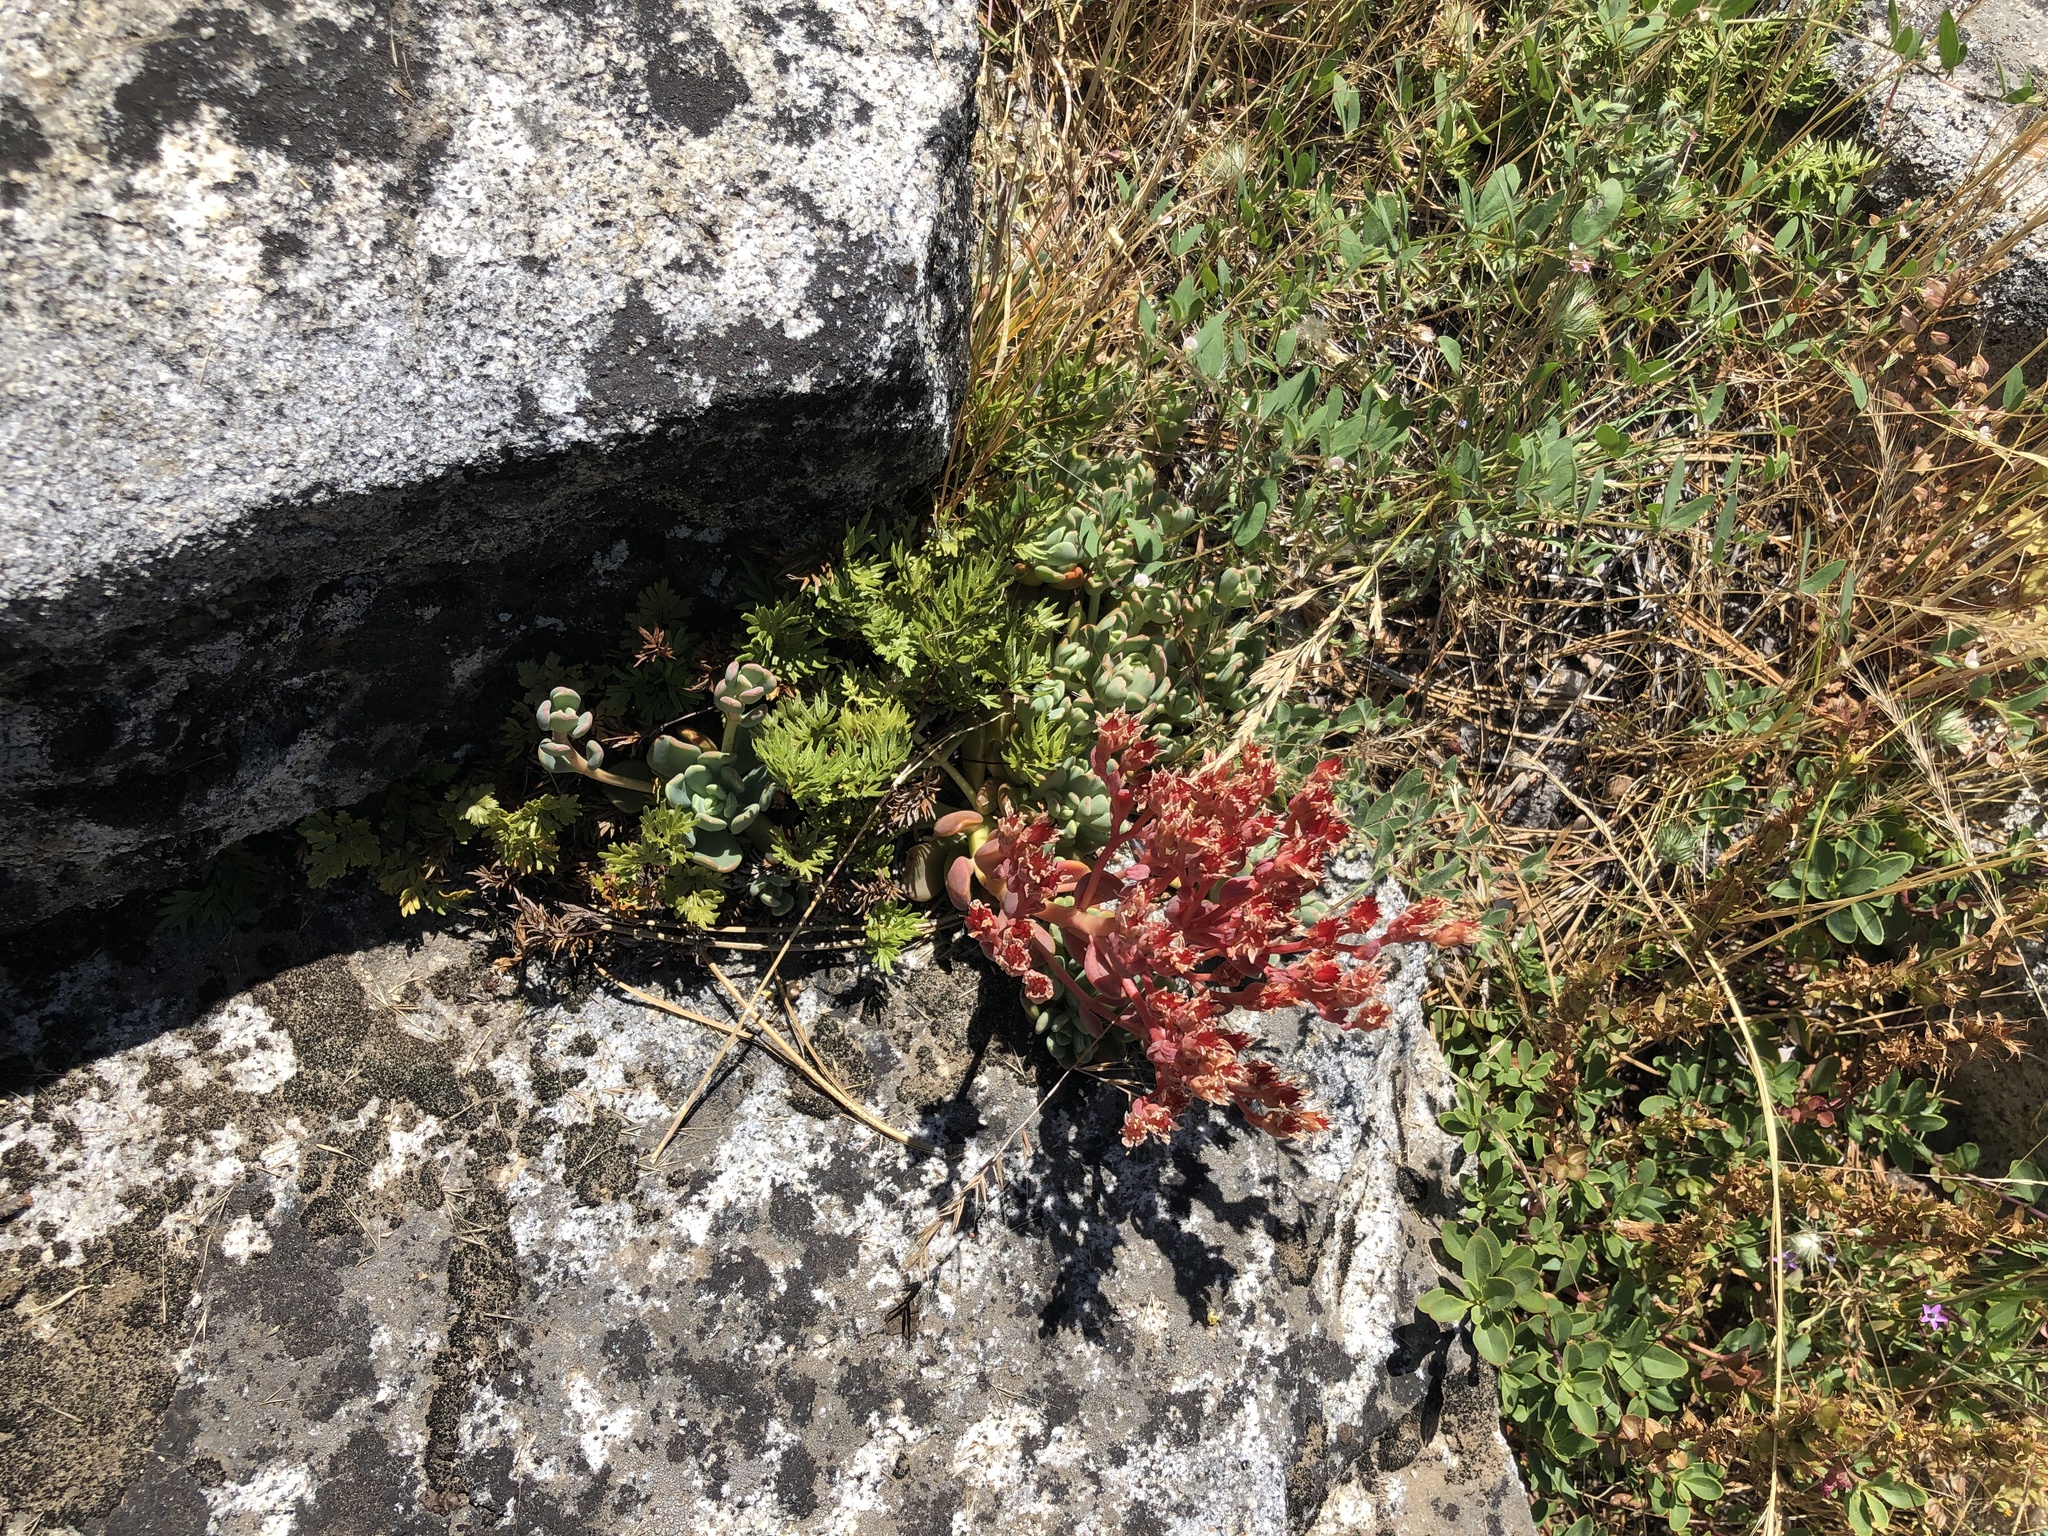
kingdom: Plantae
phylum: Tracheophyta
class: Magnoliopsida
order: Saxifragales
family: Crassulaceae
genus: Sedum
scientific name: Sedum obtusatum
